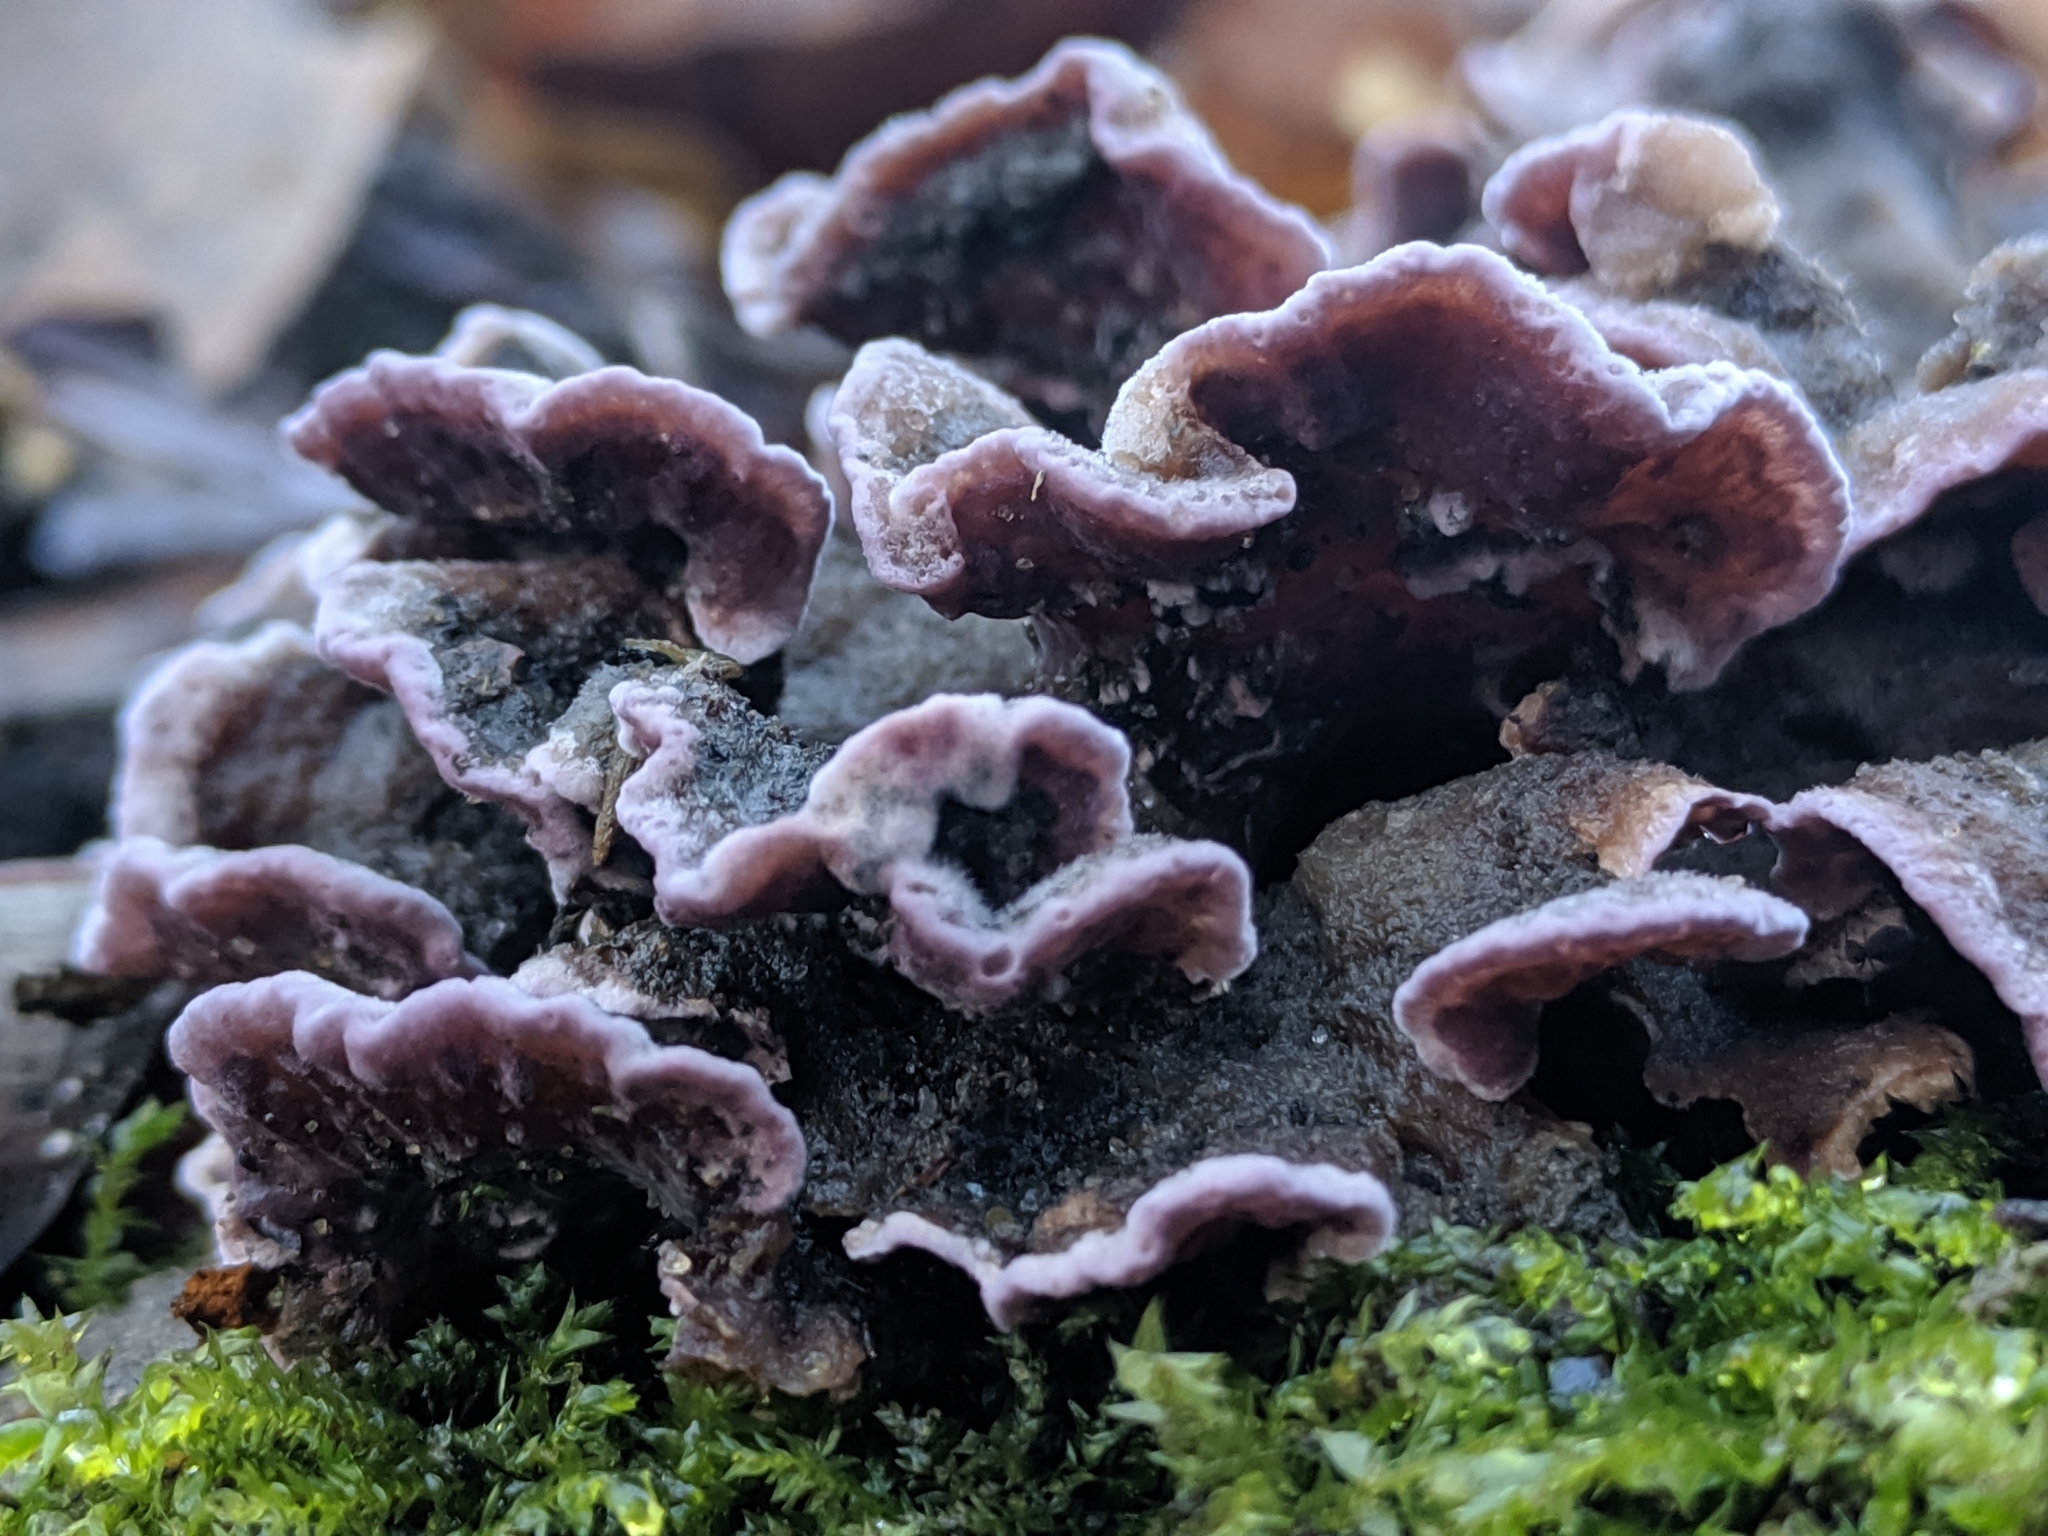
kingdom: Fungi
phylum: Basidiomycota
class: Agaricomycetes
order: Agaricales
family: Cyphellaceae
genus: Chondrostereum
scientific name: Chondrostereum purpureum
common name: Silver leaf disease
